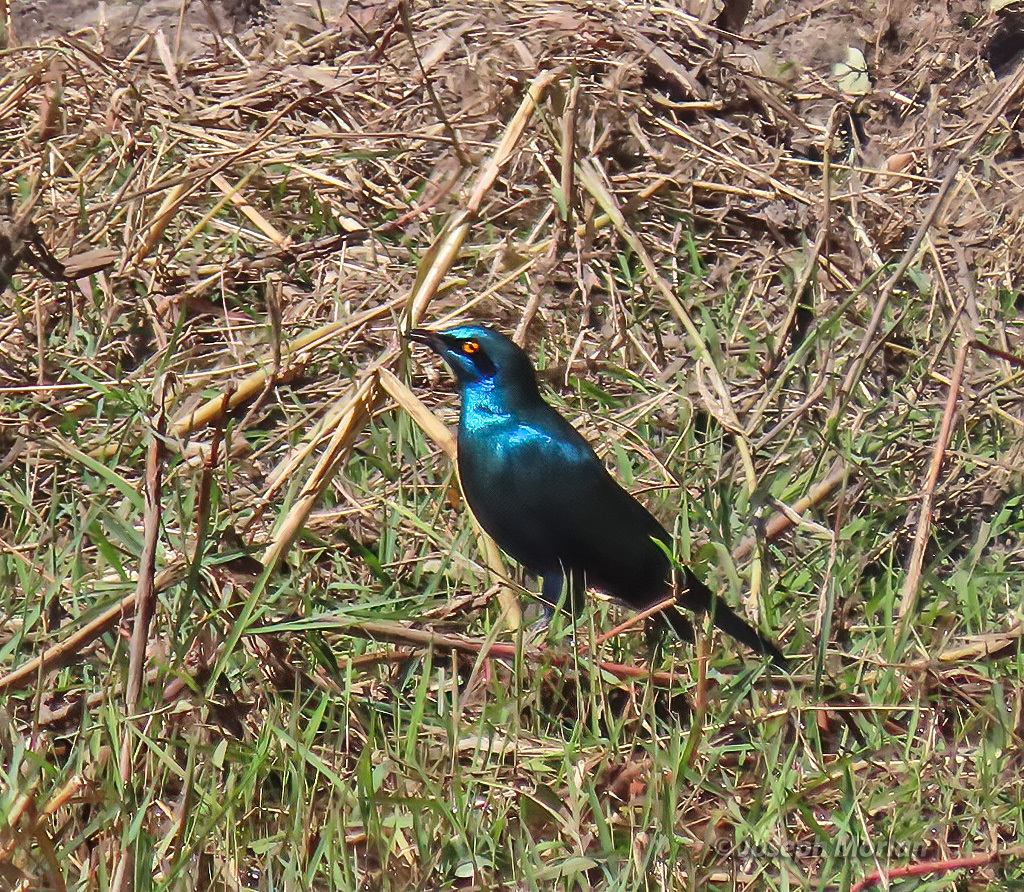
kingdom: Animalia
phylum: Chordata
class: Aves
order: Passeriformes
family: Sturnidae
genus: Lamprotornis
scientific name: Lamprotornis chalybaeus
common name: Greater blue-eared starling
